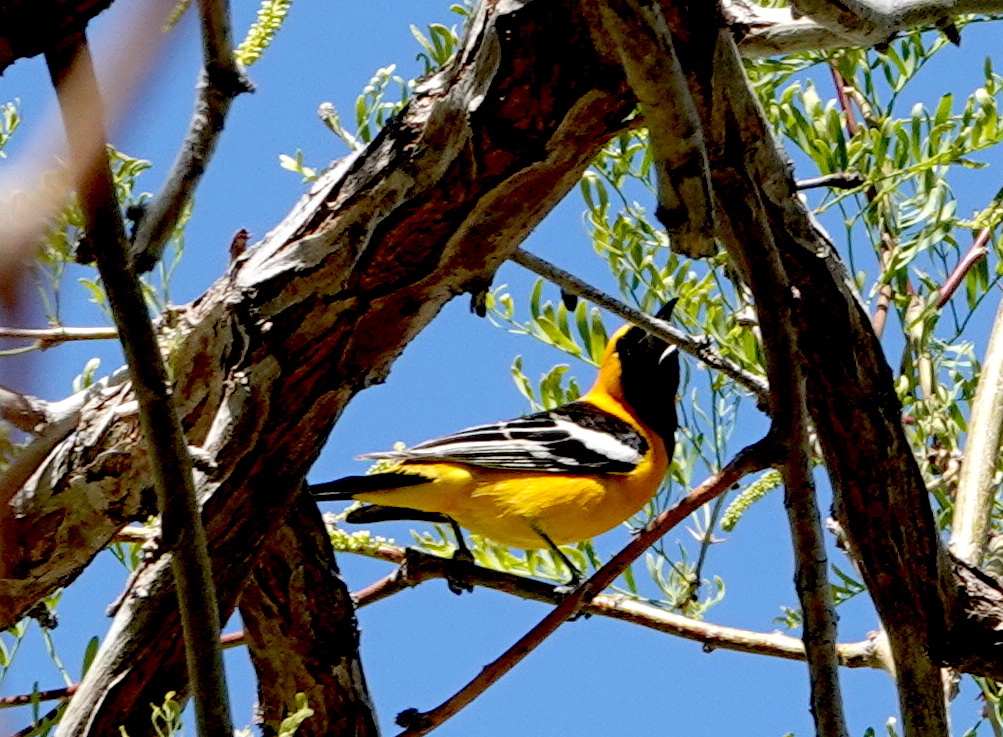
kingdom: Animalia
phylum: Chordata
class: Aves
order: Passeriformes
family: Icteridae
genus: Icterus
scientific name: Icterus cucullatus
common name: Hooded oriole
